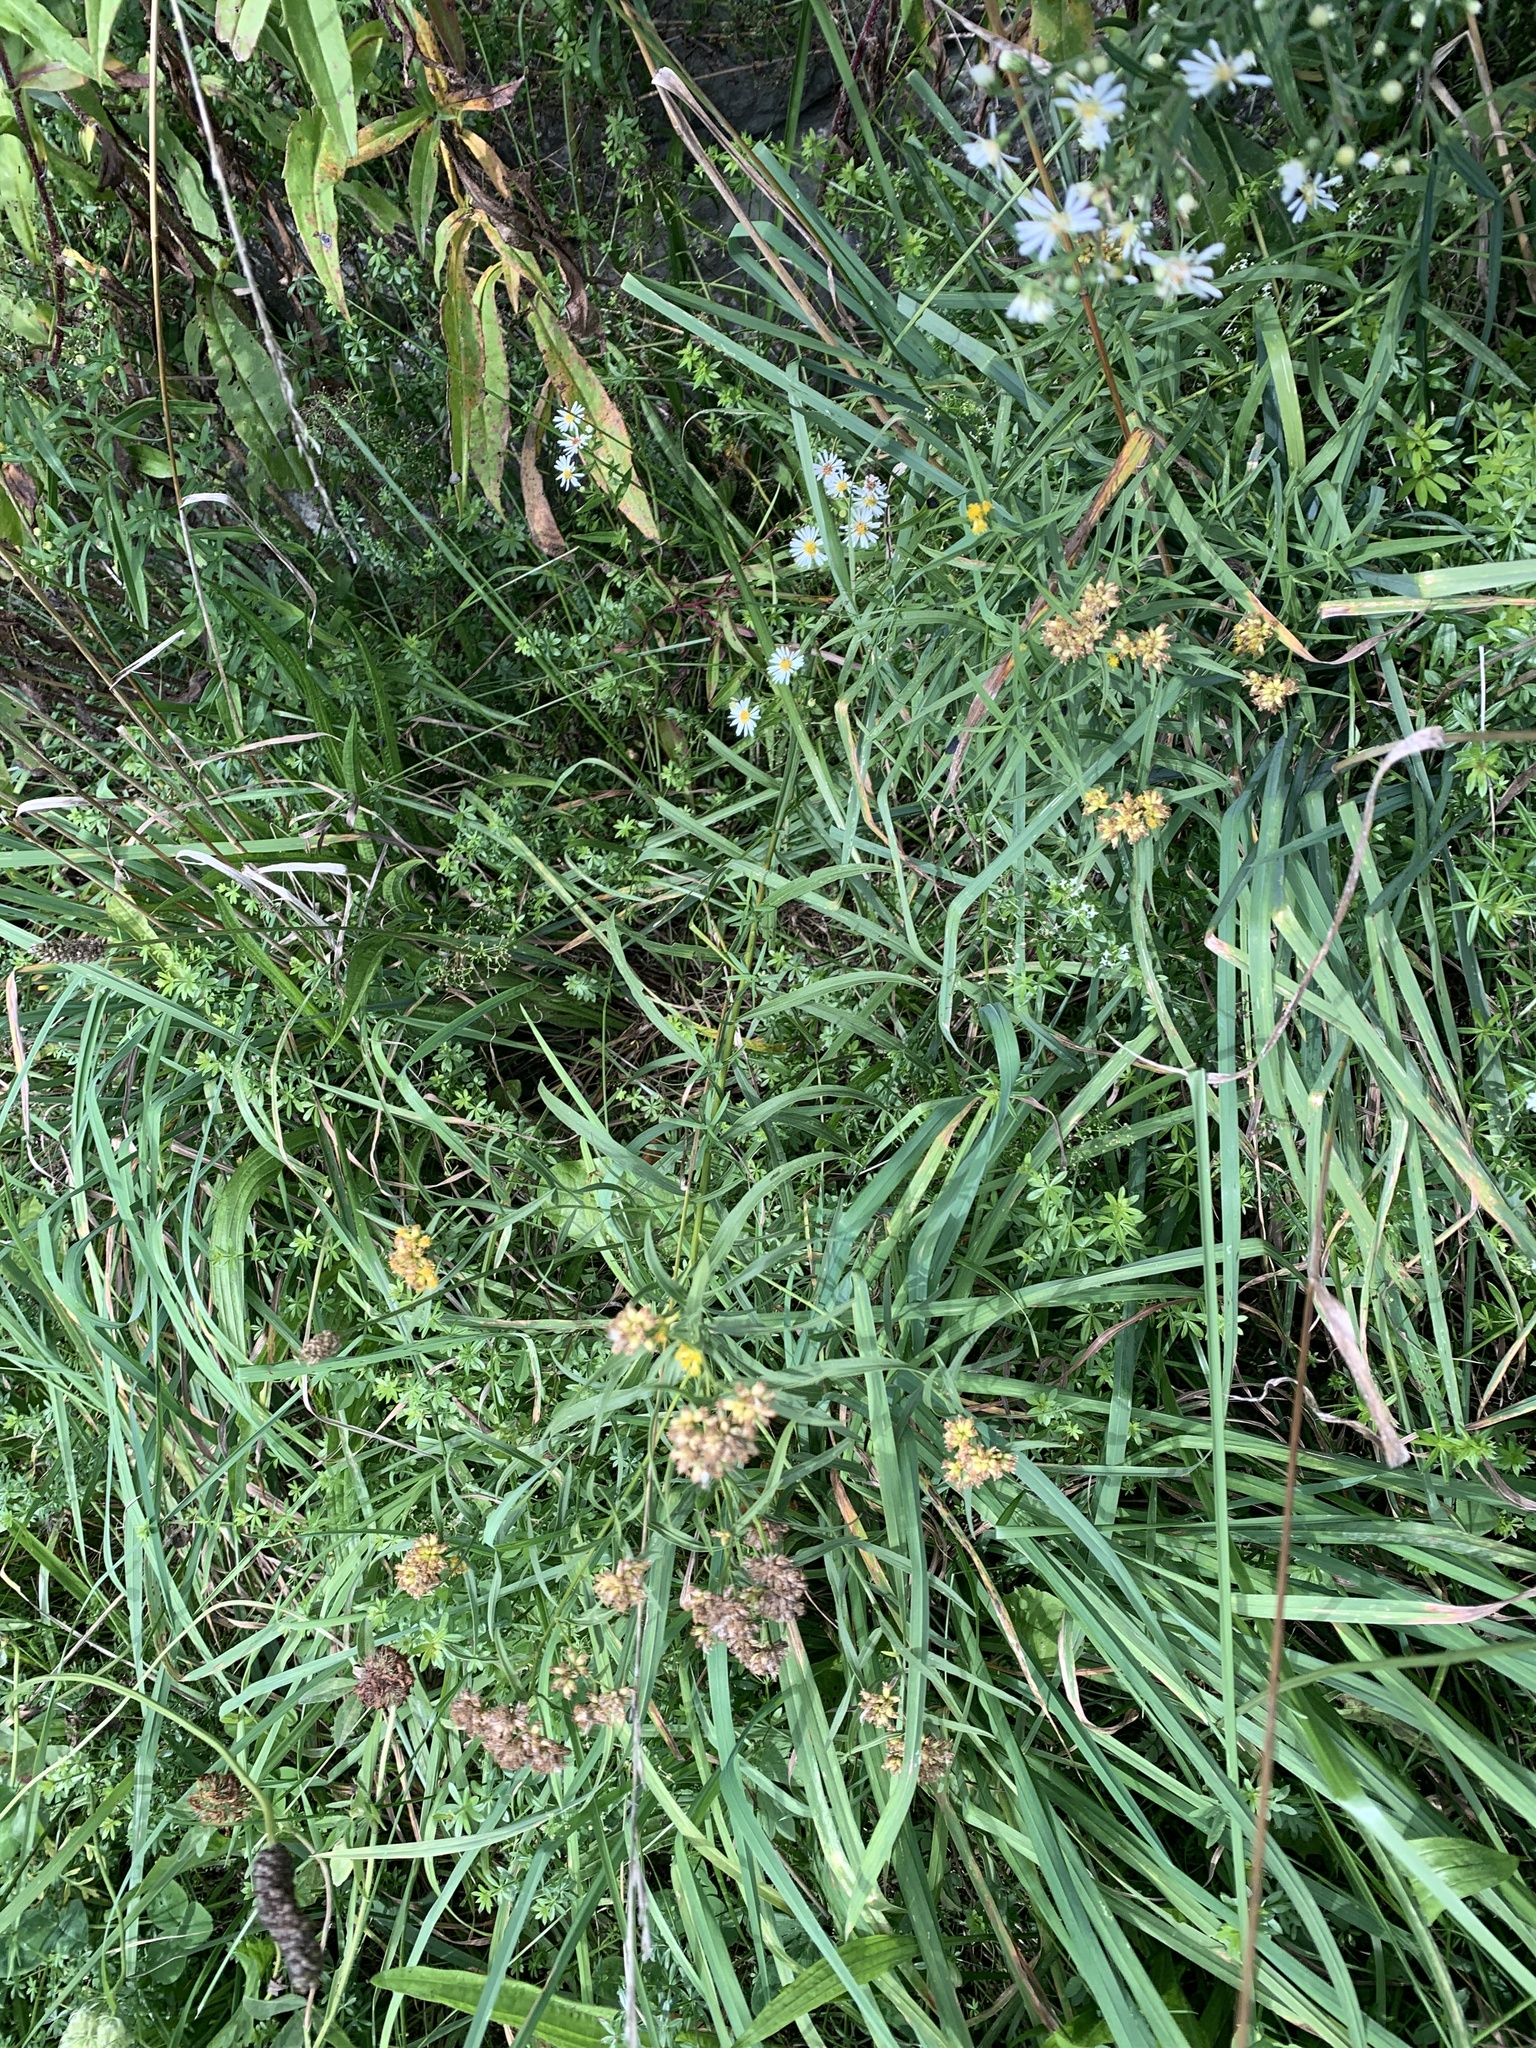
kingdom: Plantae
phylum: Tracheophyta
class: Magnoliopsida
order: Asterales
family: Asteraceae
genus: Euthamia
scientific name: Euthamia graminifolia
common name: Common goldentop
